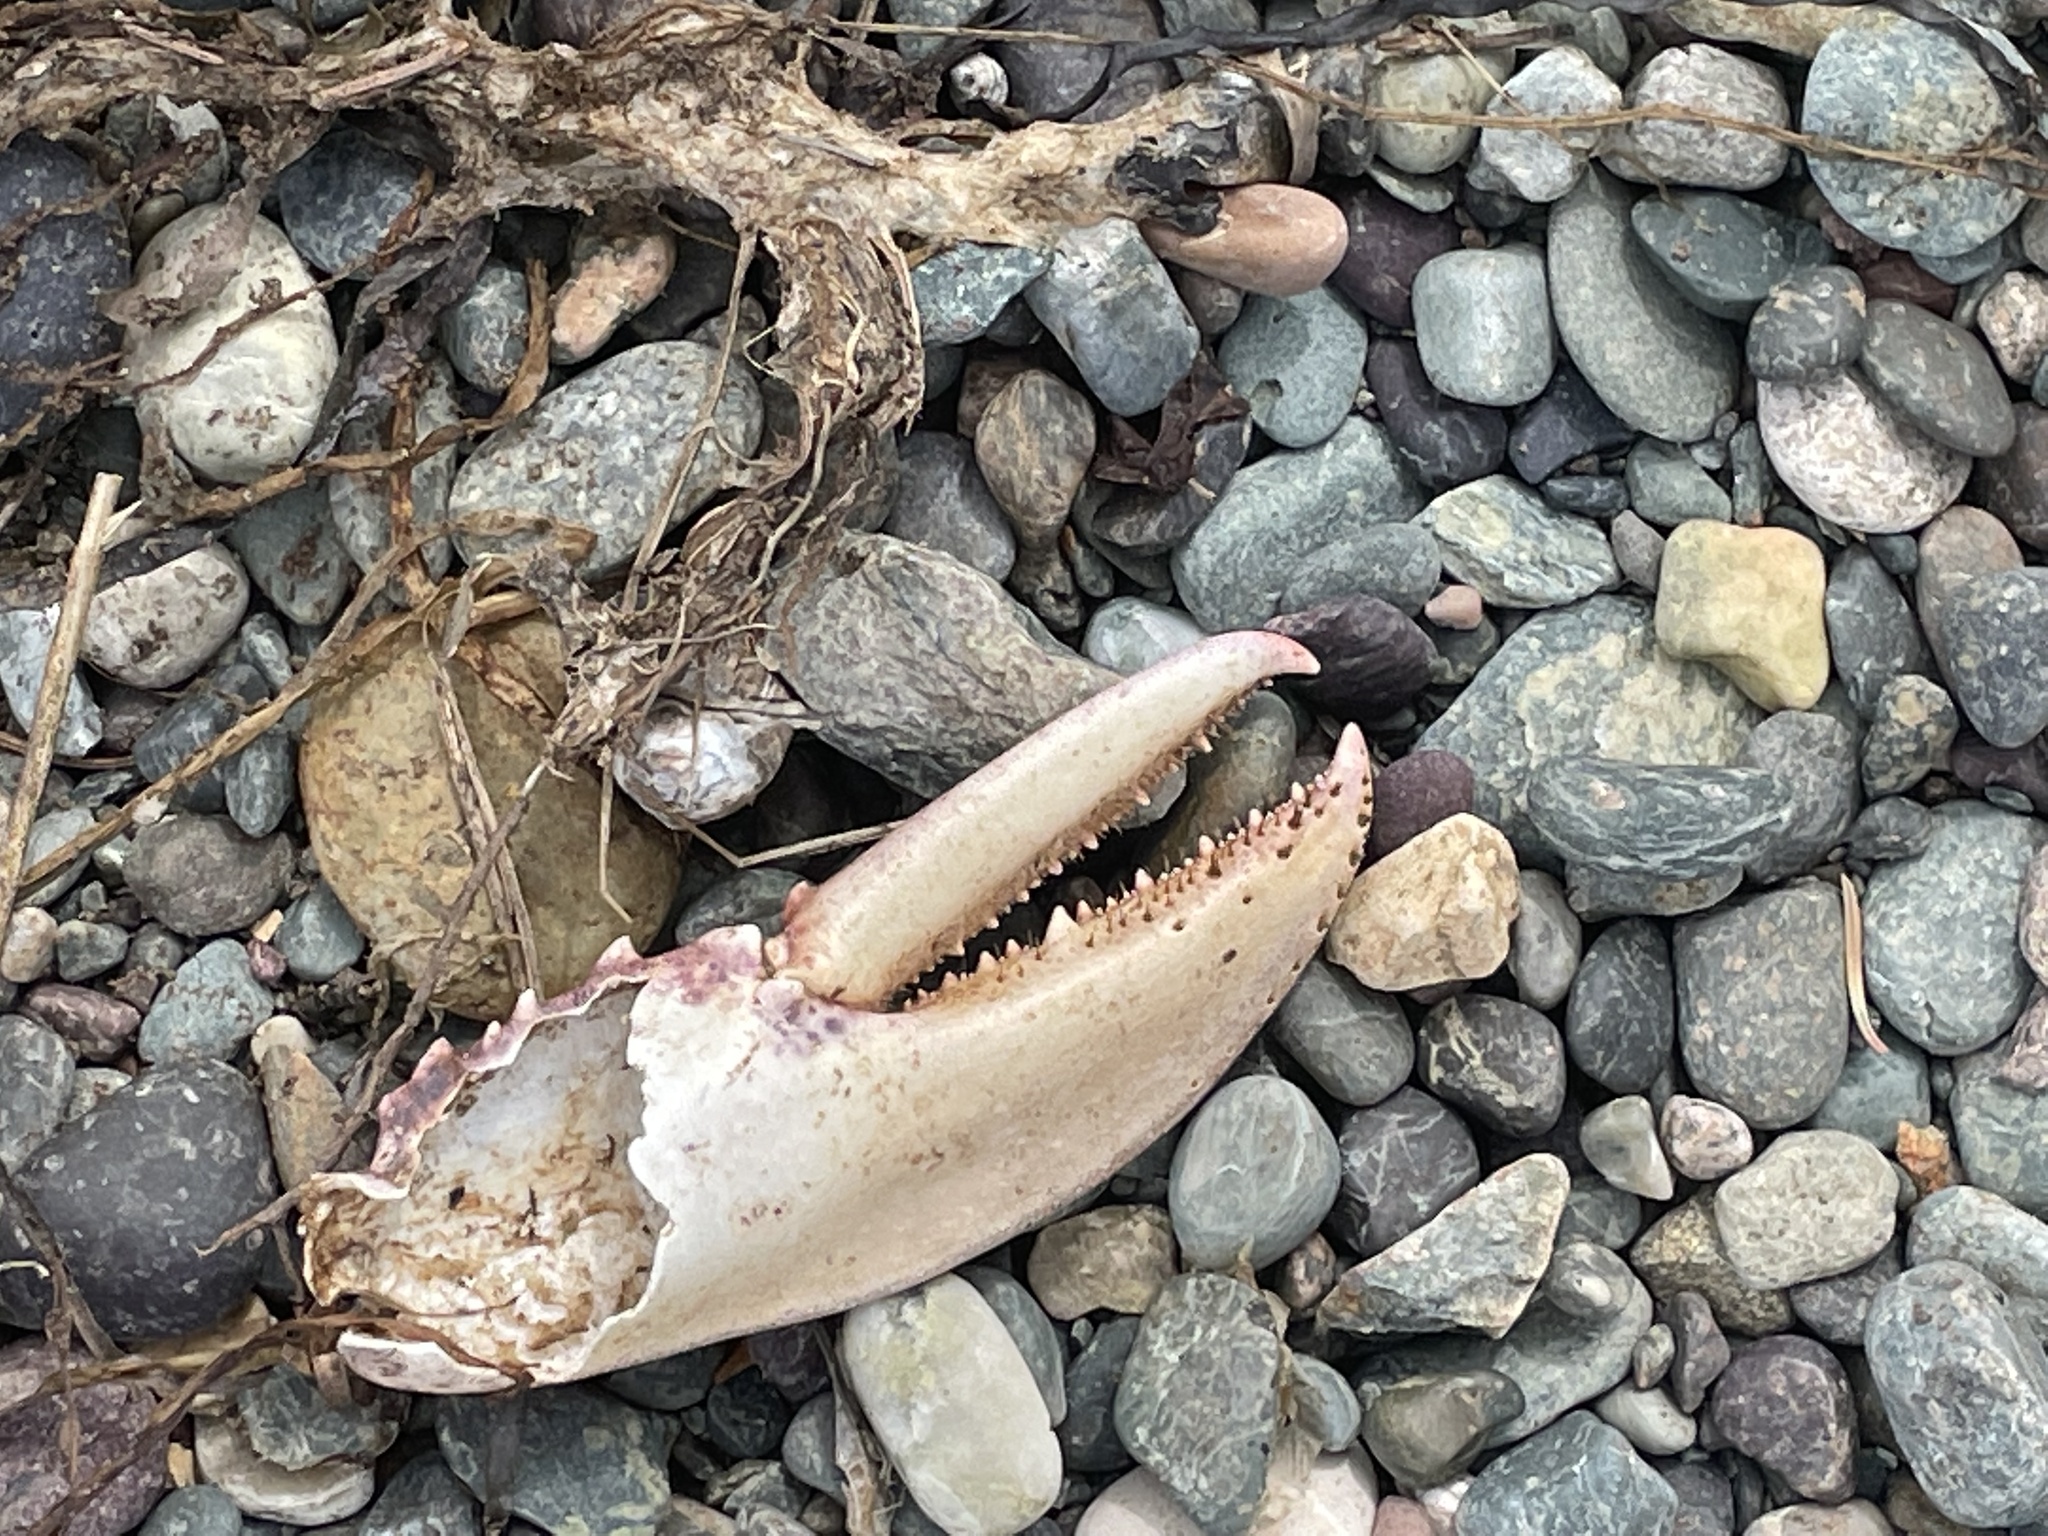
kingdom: Animalia
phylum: Arthropoda
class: Malacostraca
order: Decapoda
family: Nephropidae
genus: Homarus
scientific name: Homarus americanus
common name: American lobster
